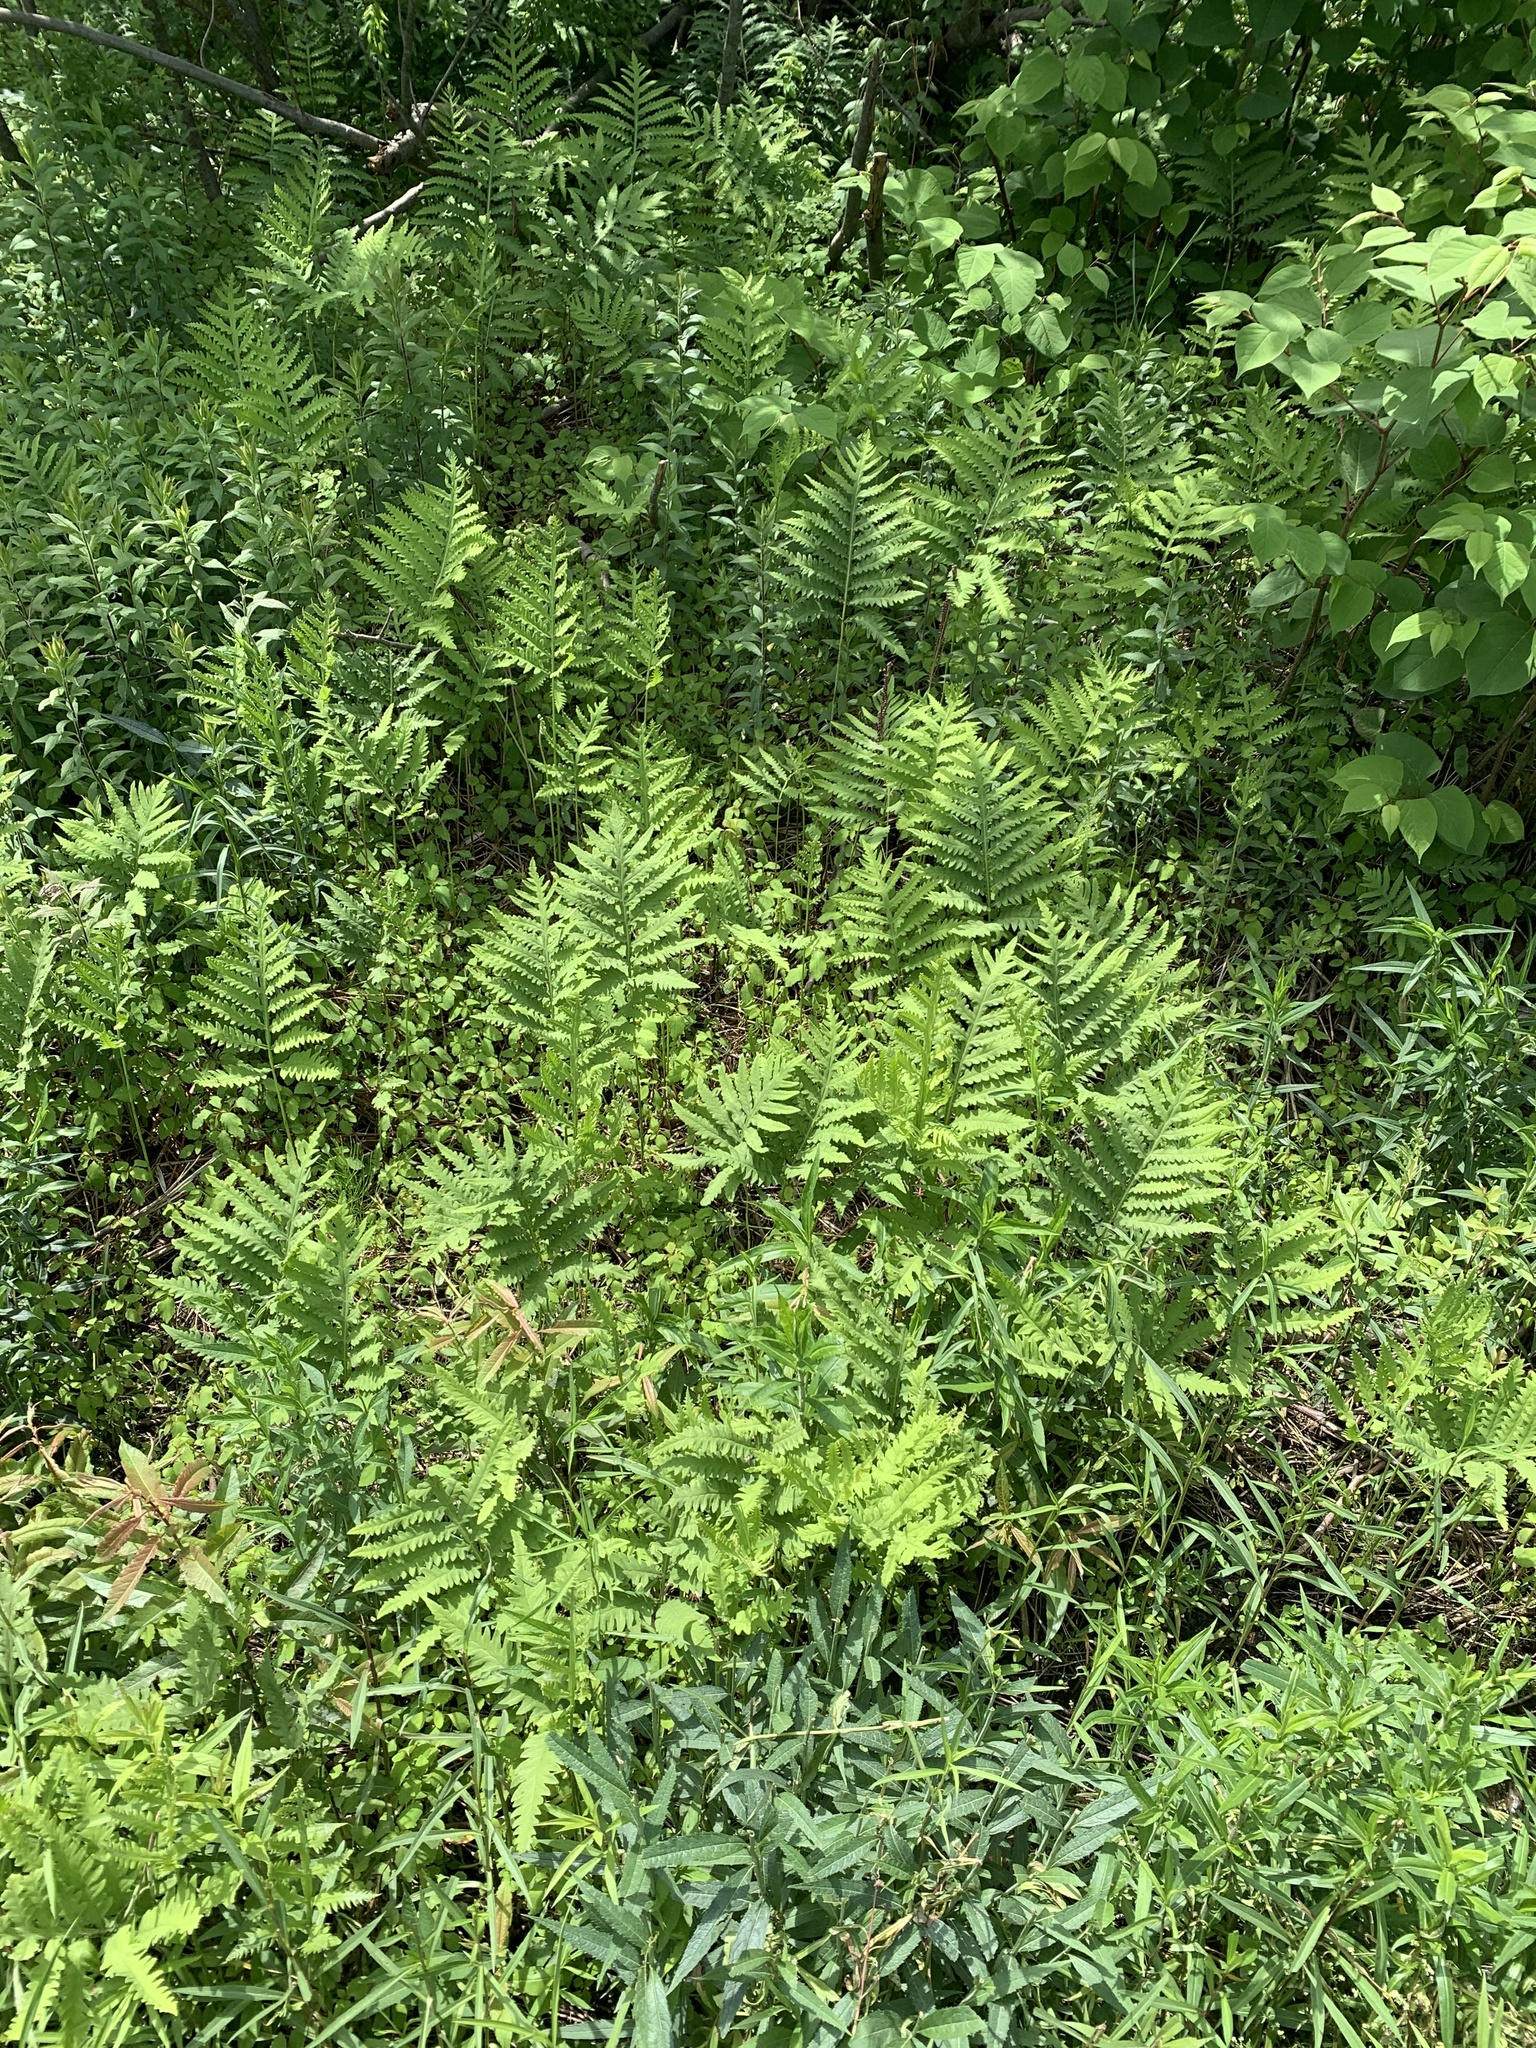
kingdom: Plantae
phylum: Tracheophyta
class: Polypodiopsida
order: Polypodiales
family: Onocleaceae
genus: Onoclea
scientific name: Onoclea sensibilis
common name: Sensitive fern
